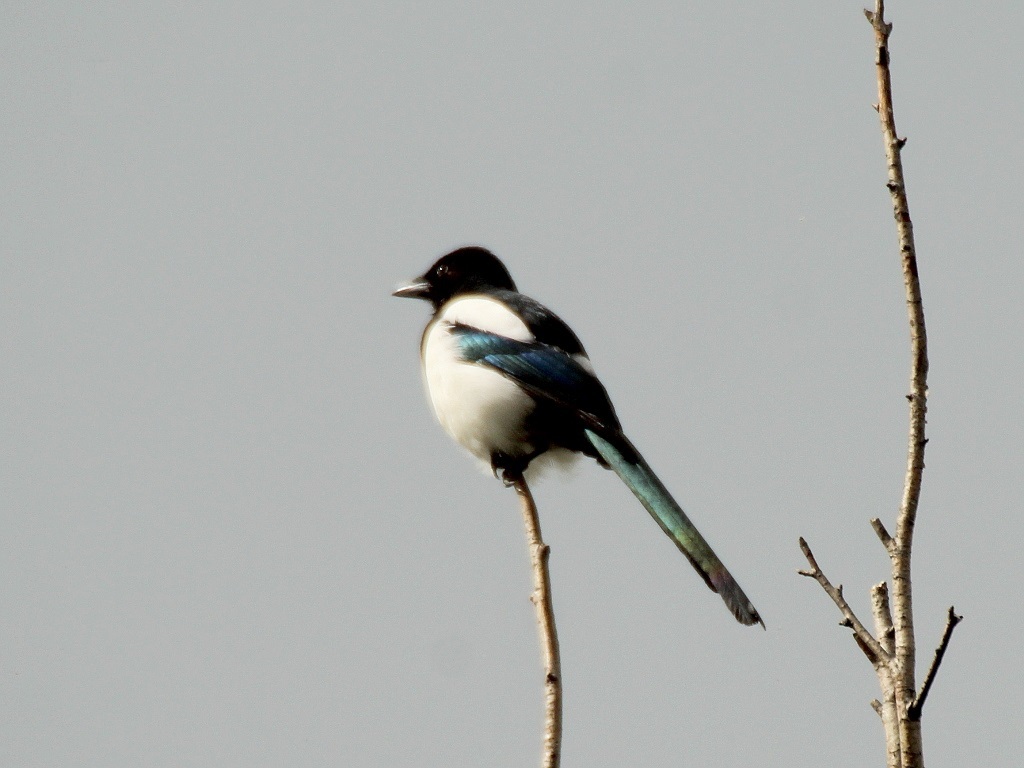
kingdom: Animalia
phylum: Chordata
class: Aves
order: Passeriformes
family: Corvidae
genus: Pica
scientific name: Pica pica
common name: Eurasian magpie
